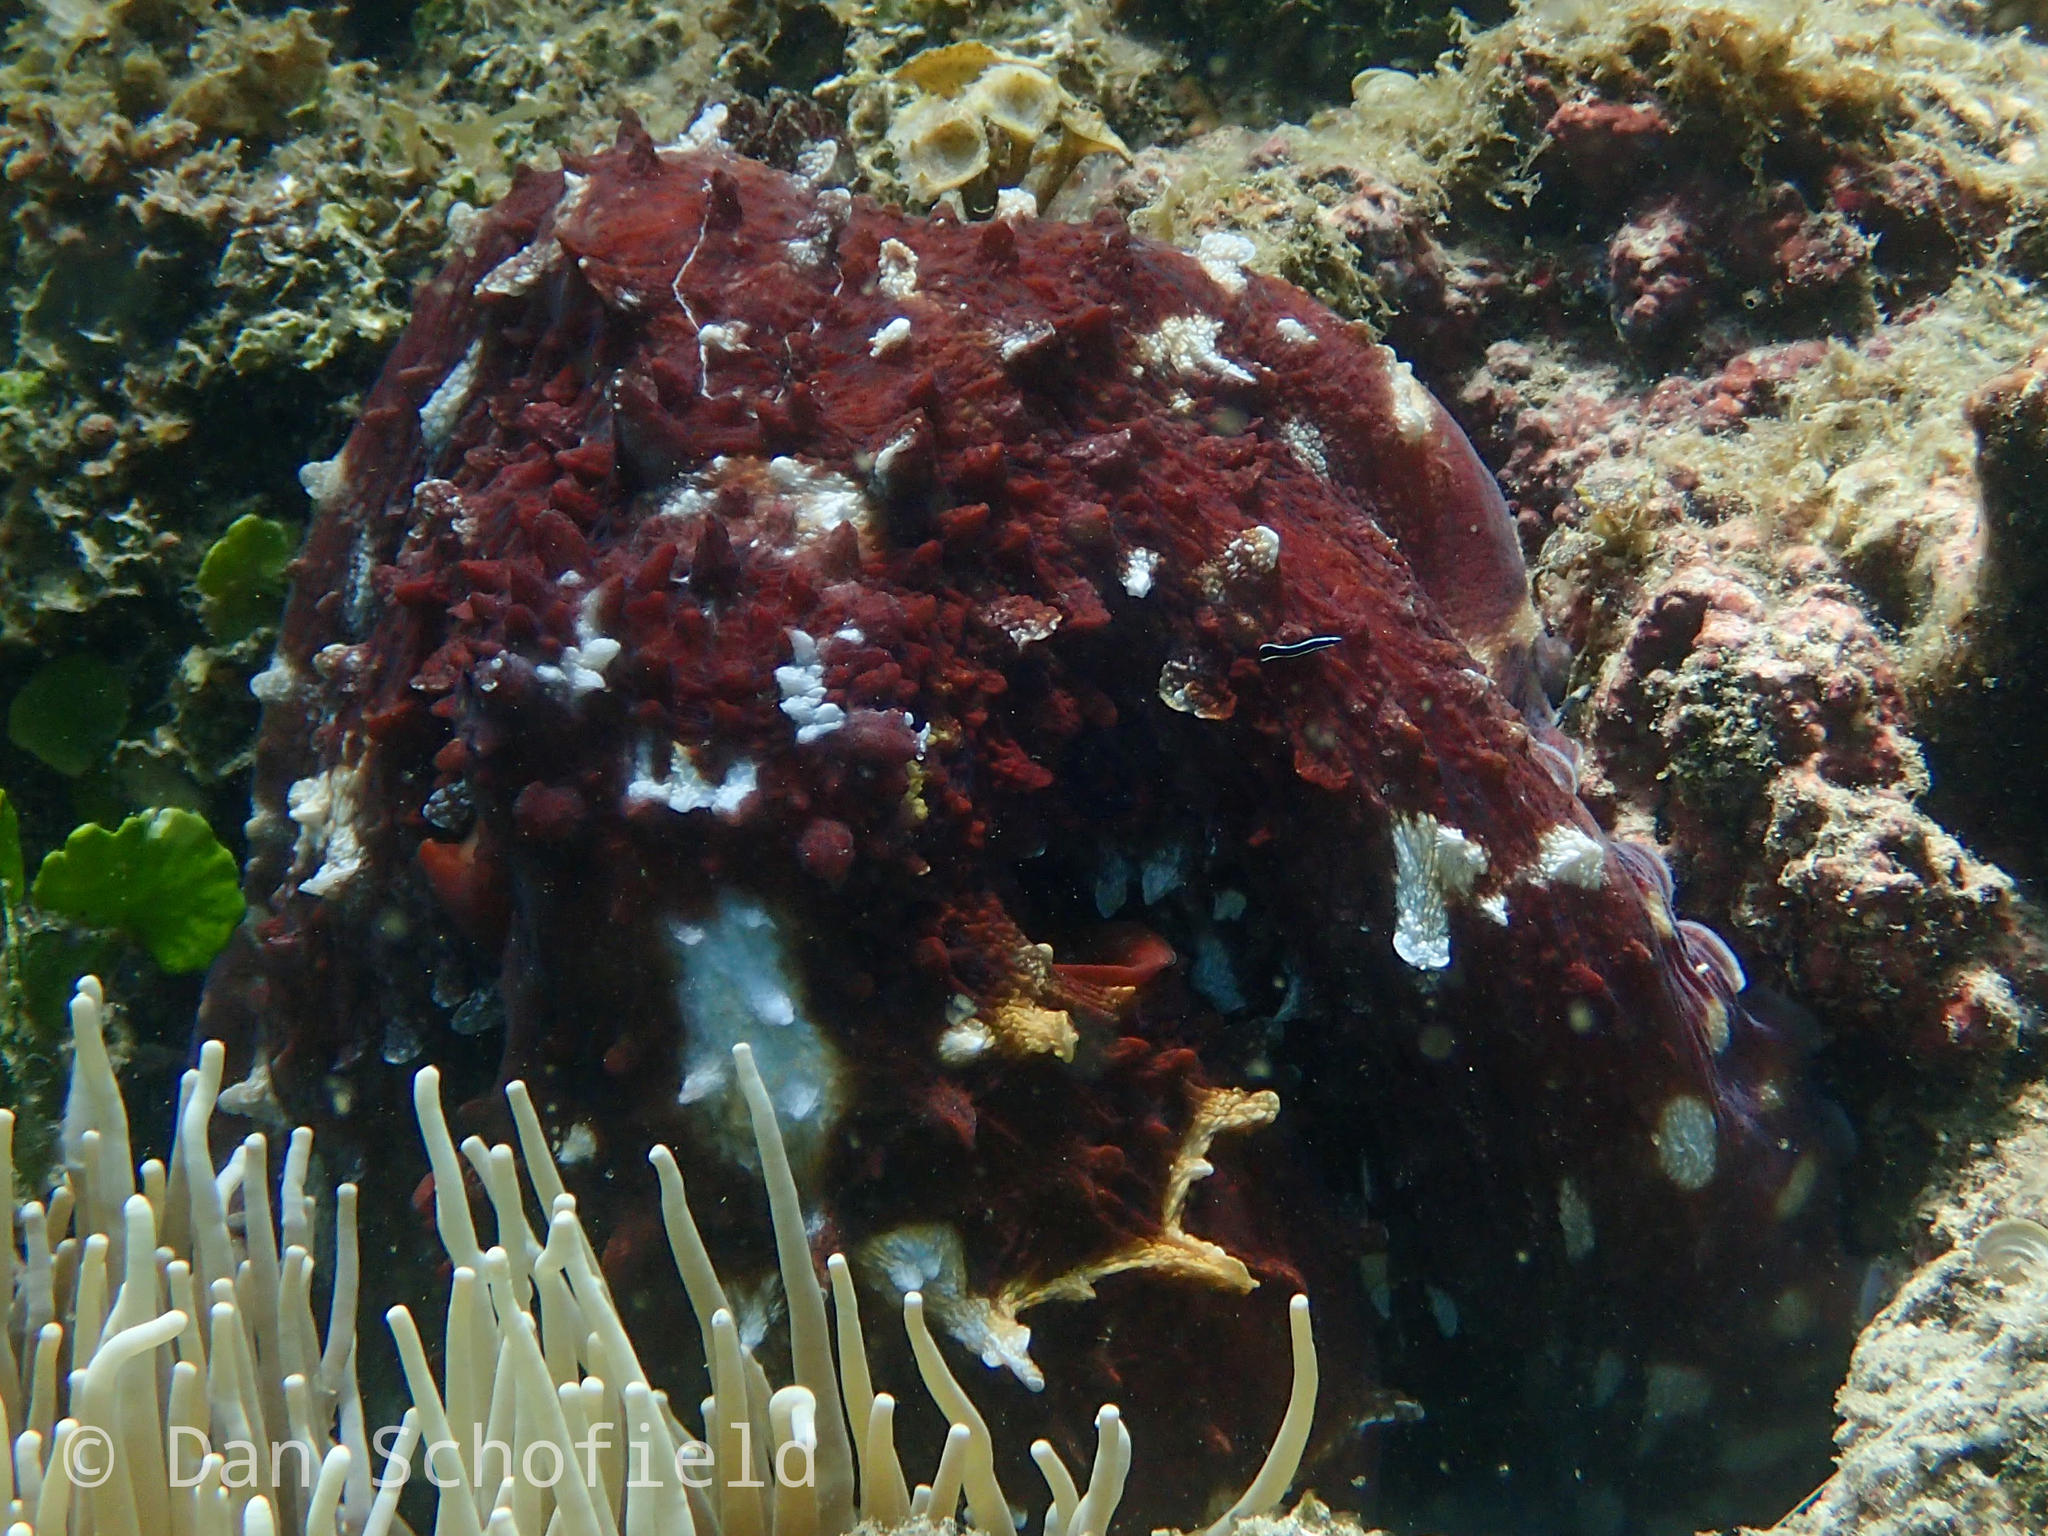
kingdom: Animalia
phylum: Mollusca
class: Cephalopoda
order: Octopoda
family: Octopodidae
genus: Octopus
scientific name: Octopus cyanea
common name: Cyane's octopus
